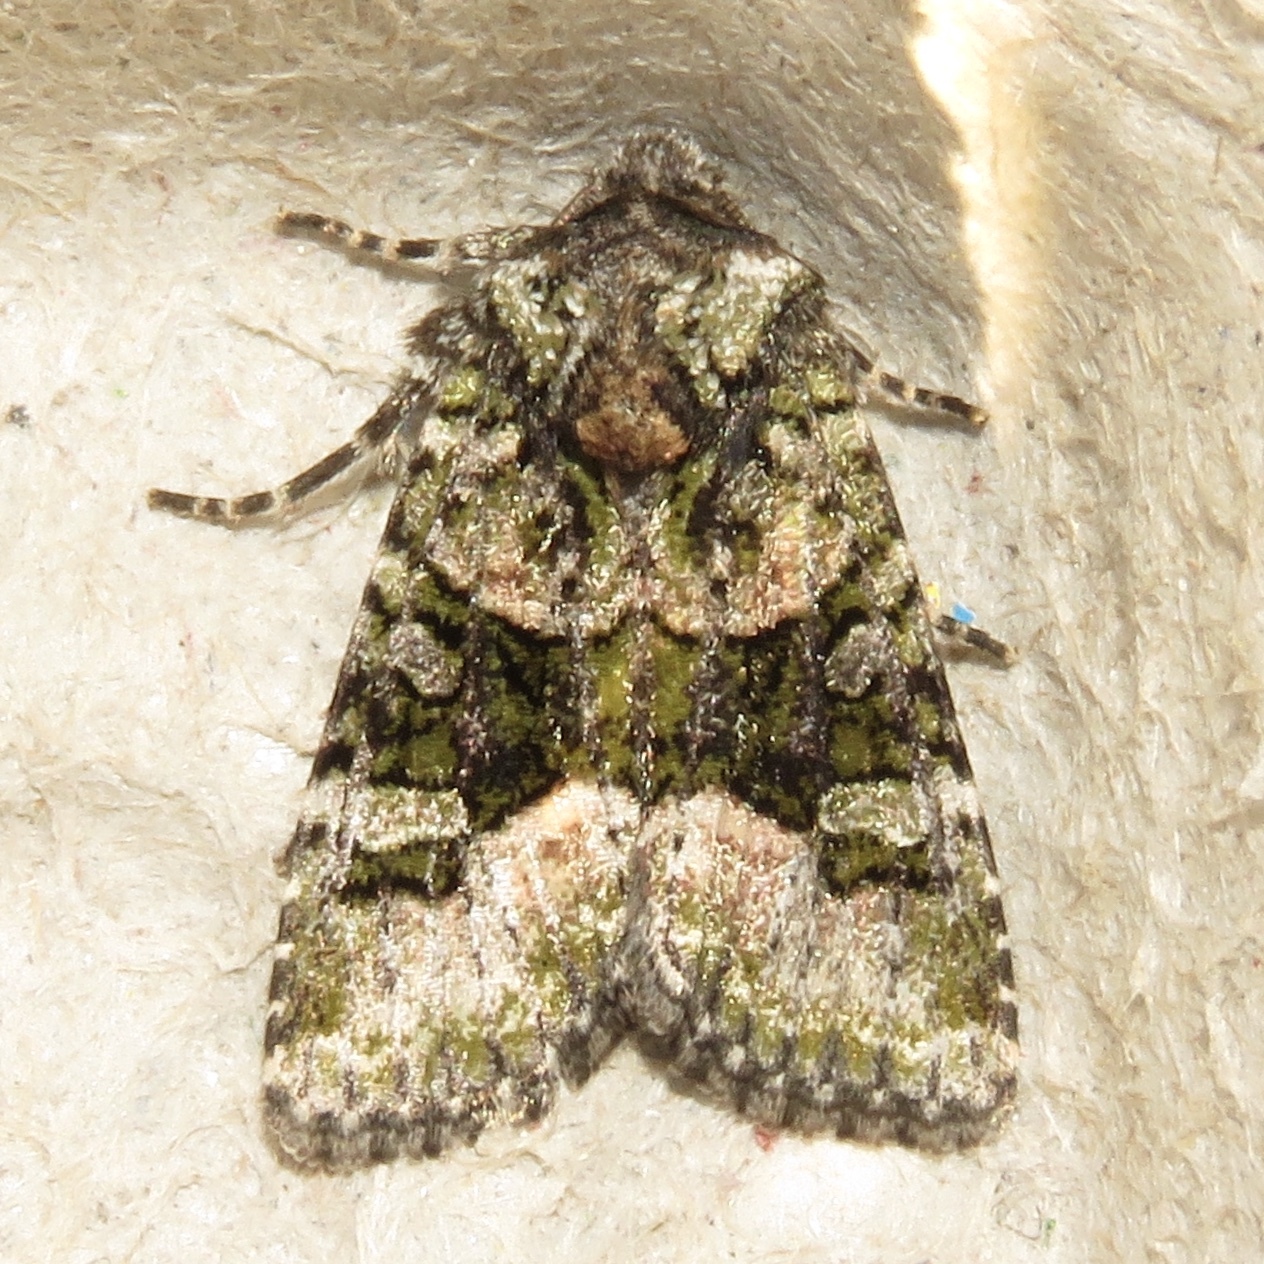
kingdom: Animalia
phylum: Arthropoda
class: Insecta
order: Lepidoptera
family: Noctuidae
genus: Lacinipolia
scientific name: Lacinipolia olivacea
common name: Olive arches moth
